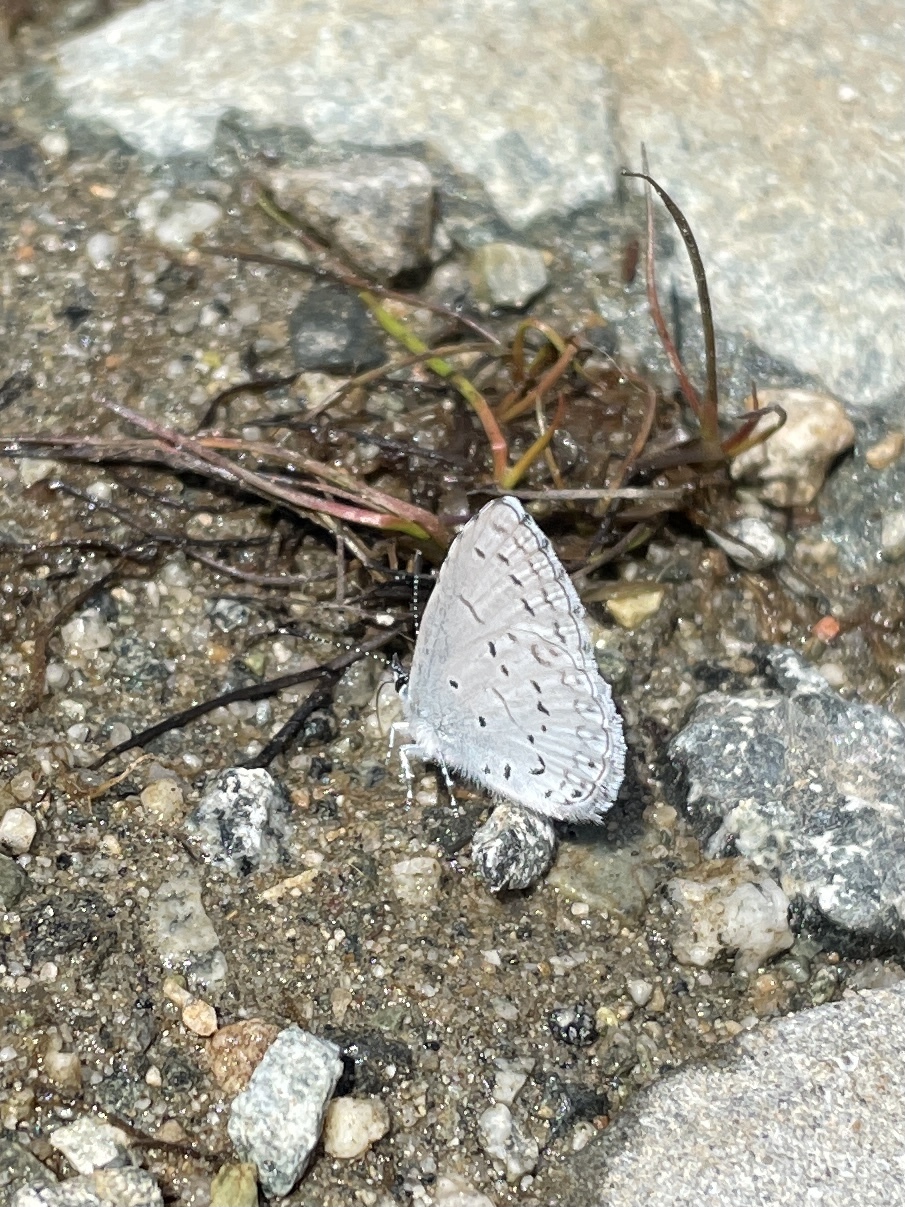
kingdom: Animalia
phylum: Arthropoda
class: Insecta
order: Lepidoptera
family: Lycaenidae
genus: Celastrina
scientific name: Celastrina ladon
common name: Spring azure
